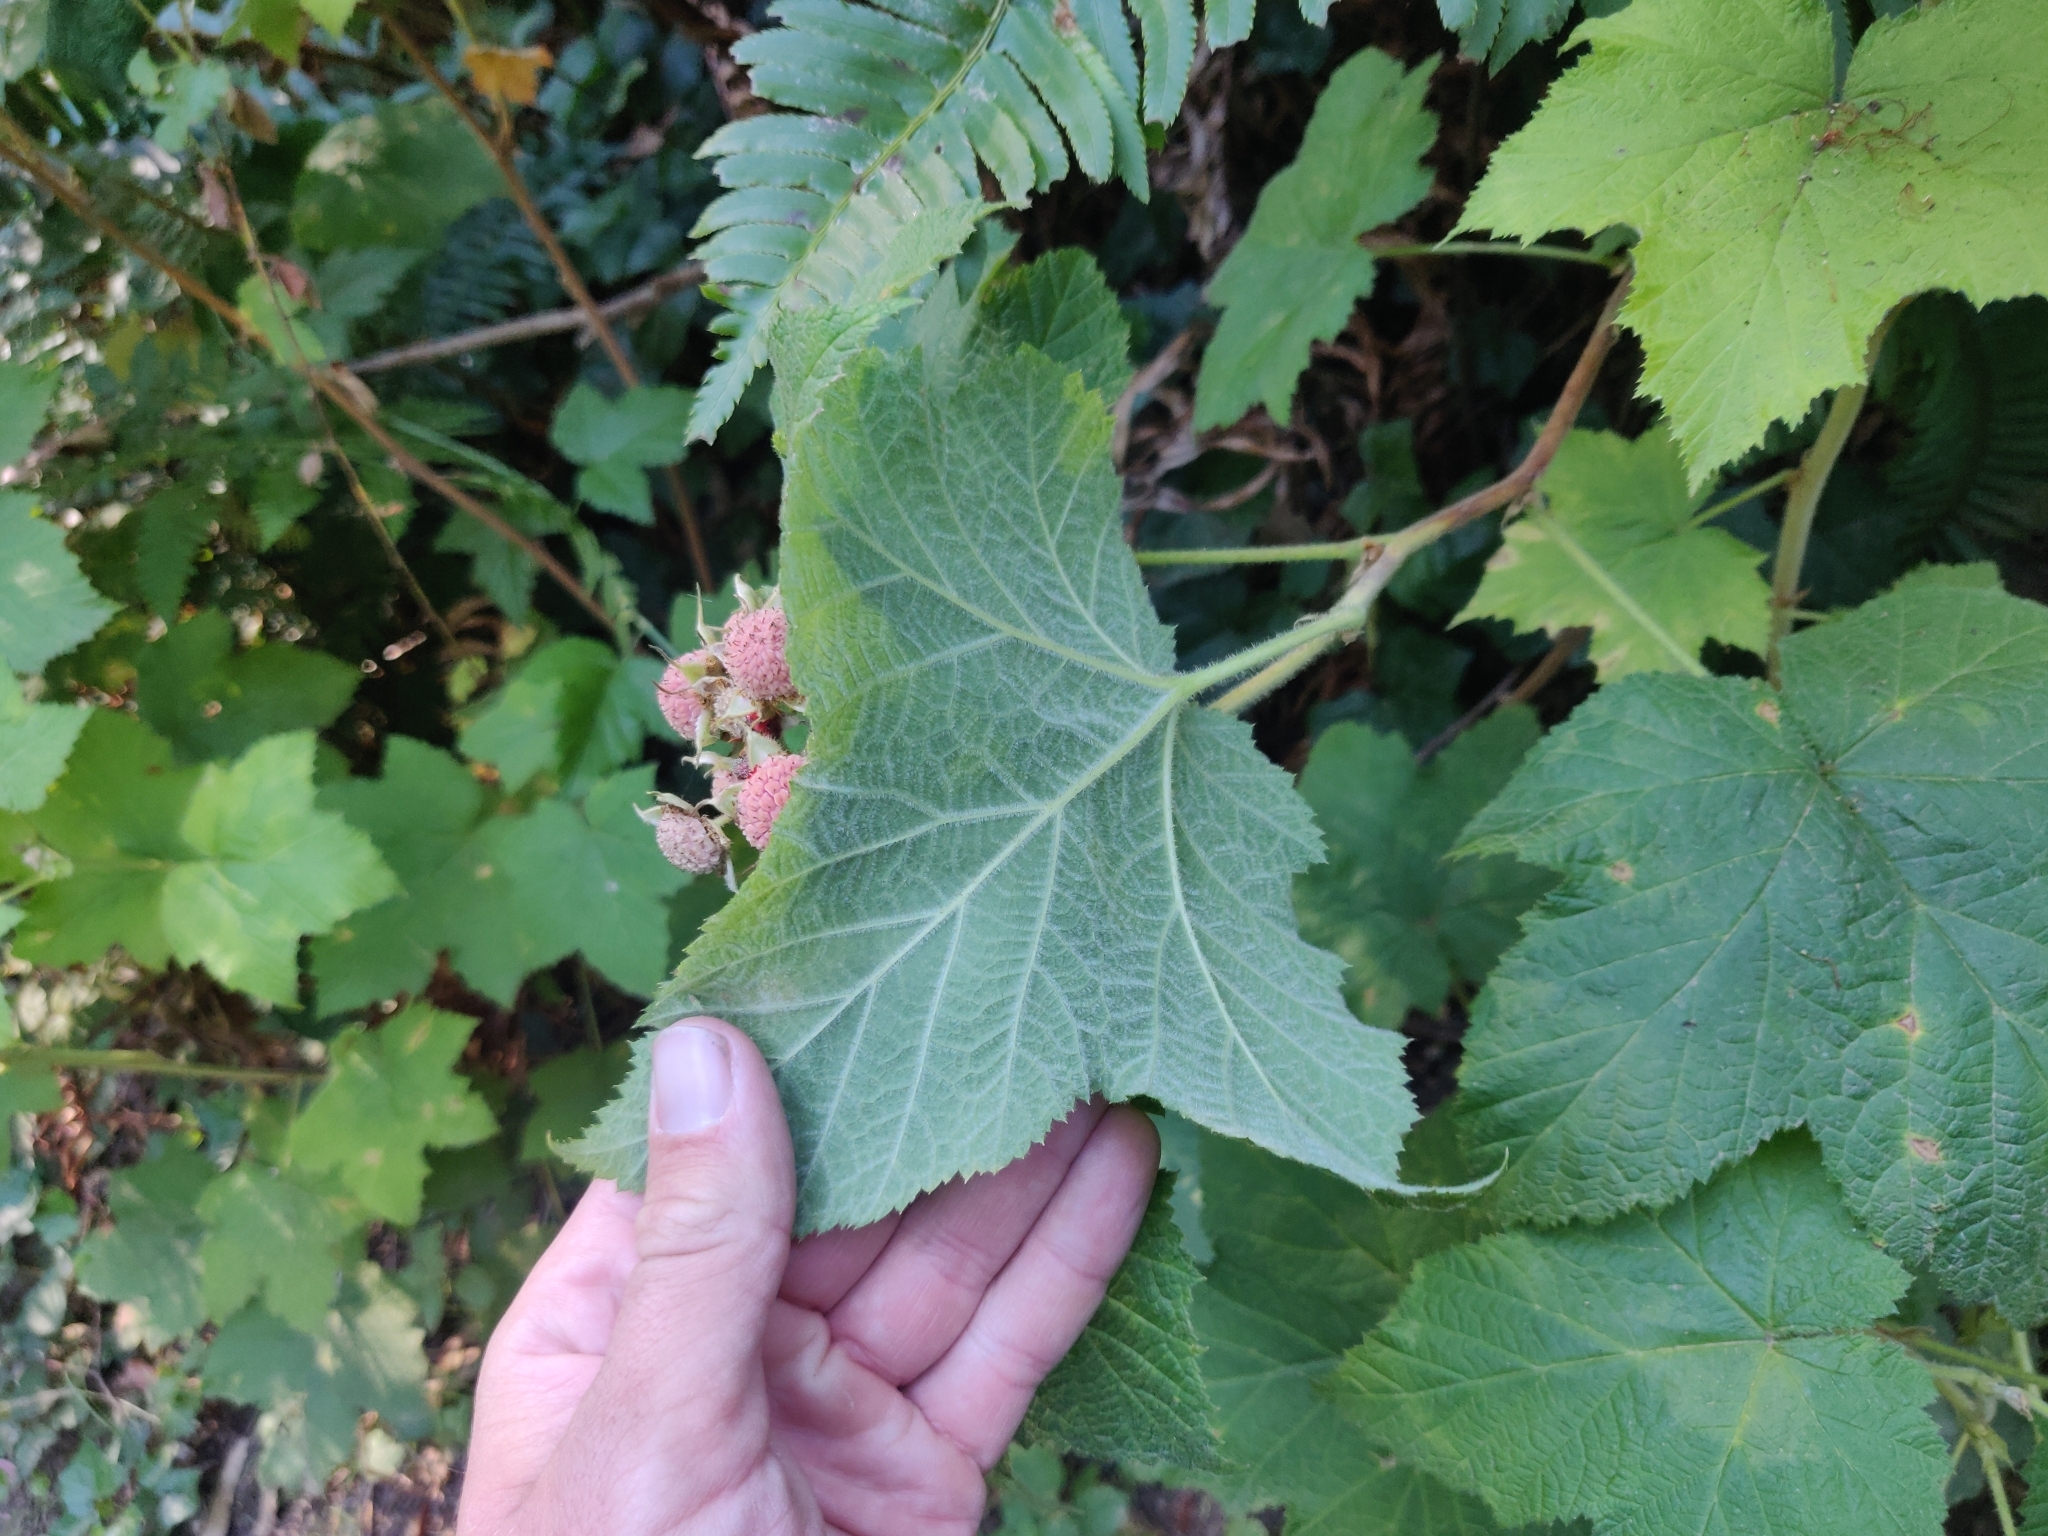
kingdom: Plantae
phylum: Tracheophyta
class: Magnoliopsida
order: Rosales
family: Rosaceae
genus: Rubus
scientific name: Rubus parviflorus
